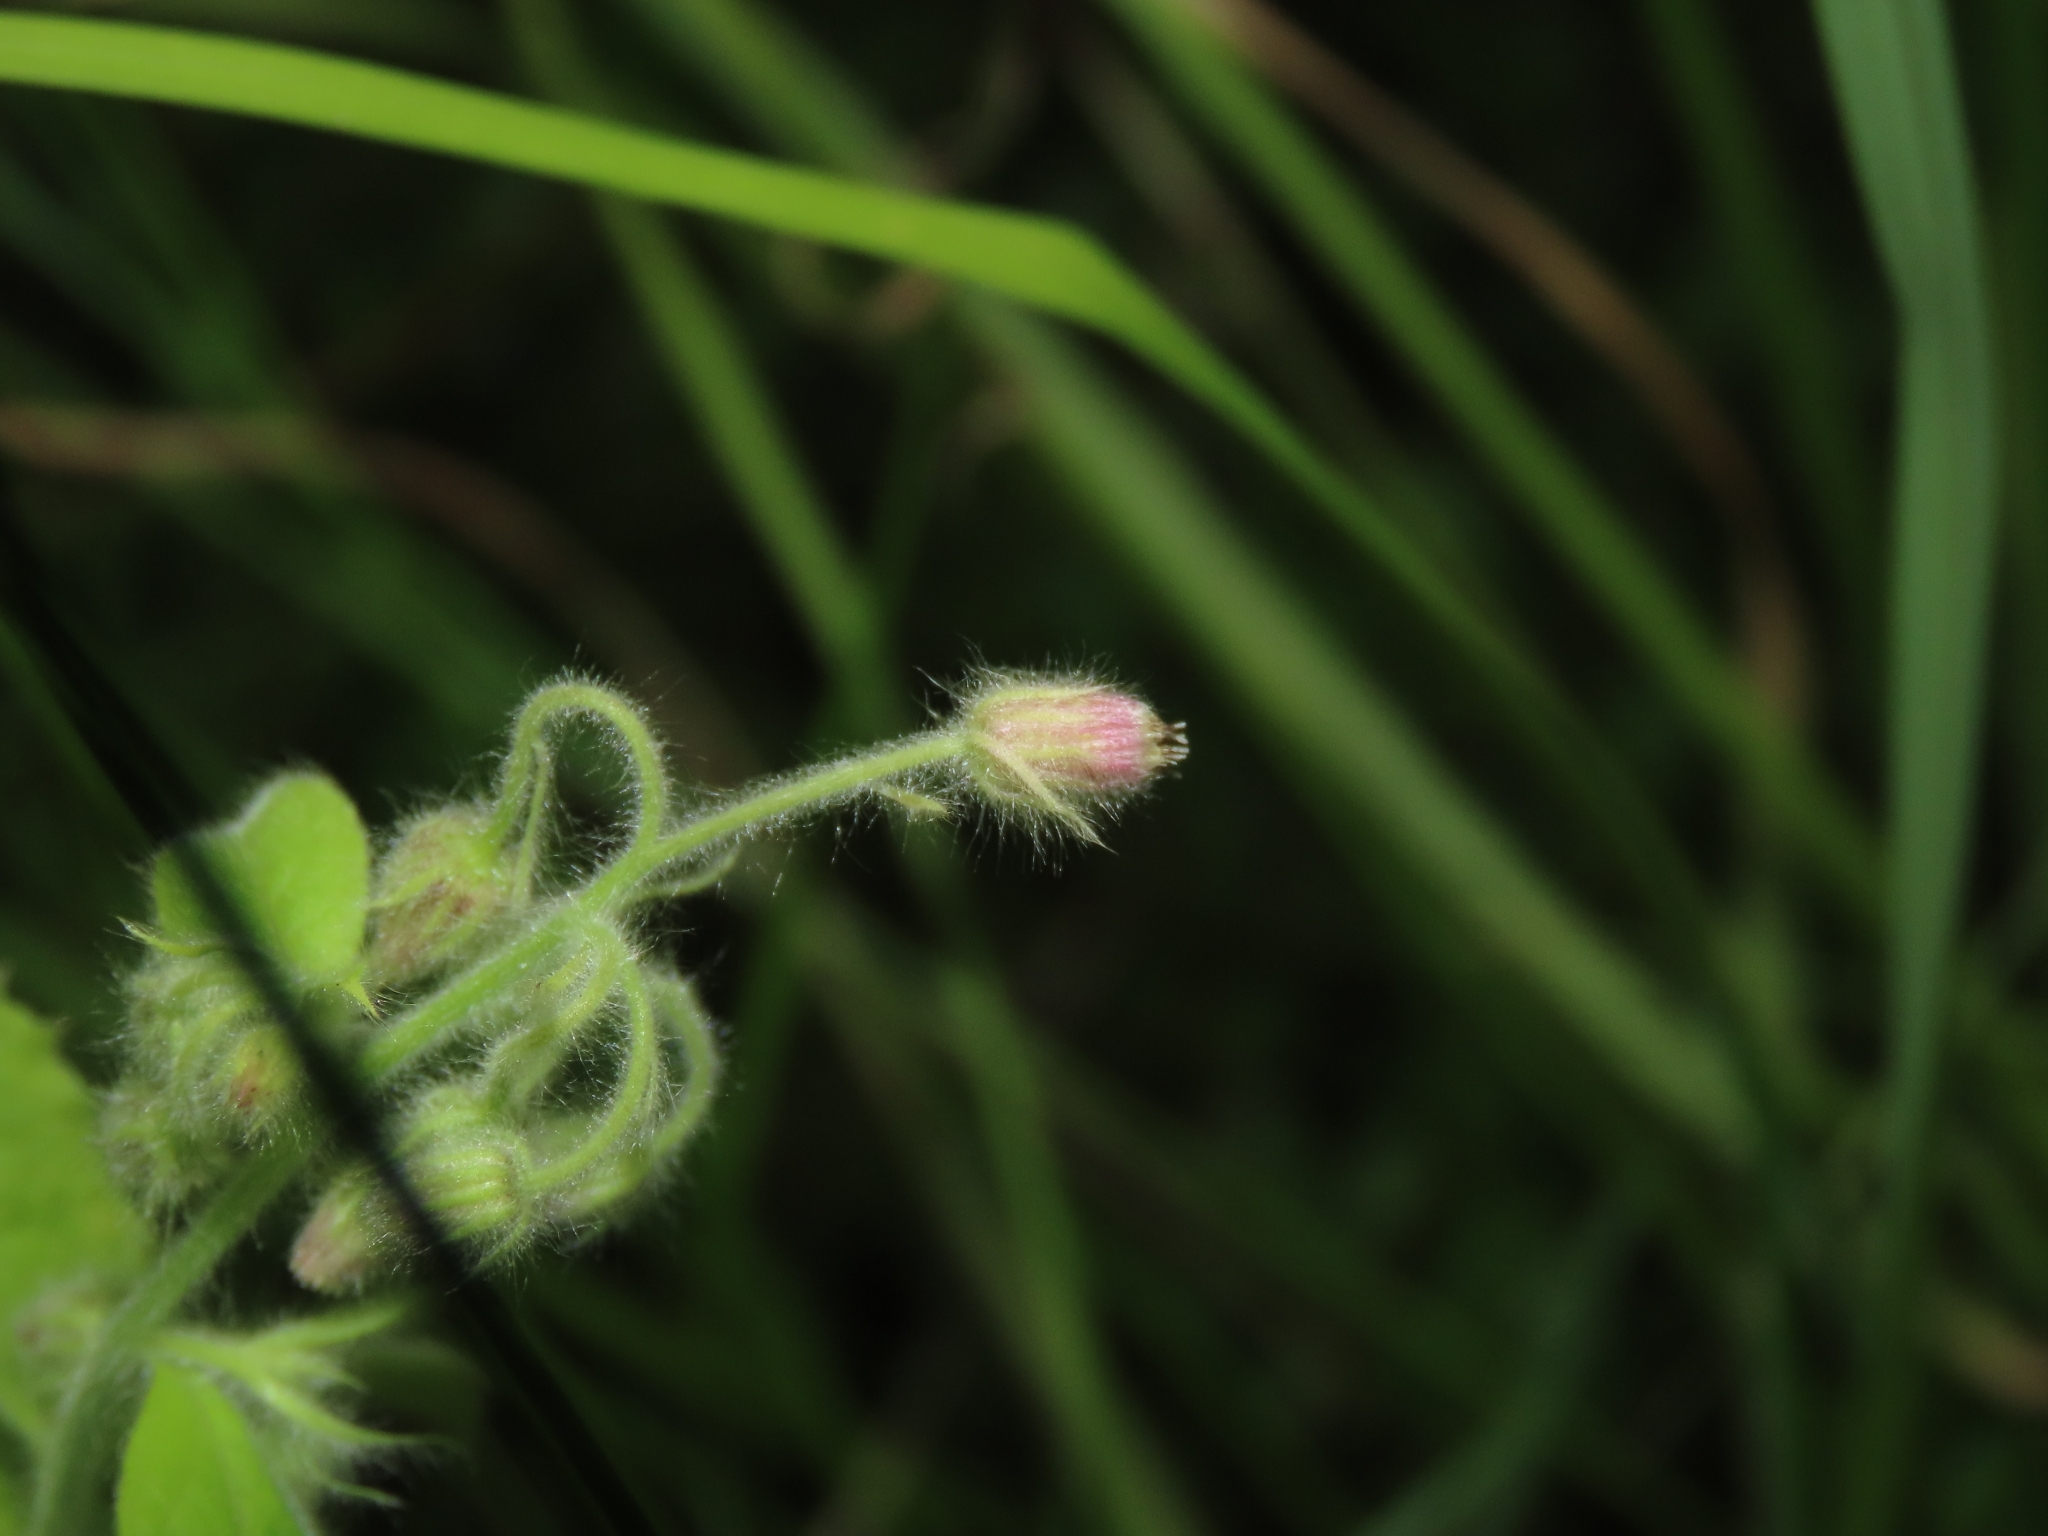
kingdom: Plantae
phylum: Tracheophyta
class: Magnoliopsida
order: Asterales
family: Asteraceae
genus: Blumea
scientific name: Blumea axillaris
